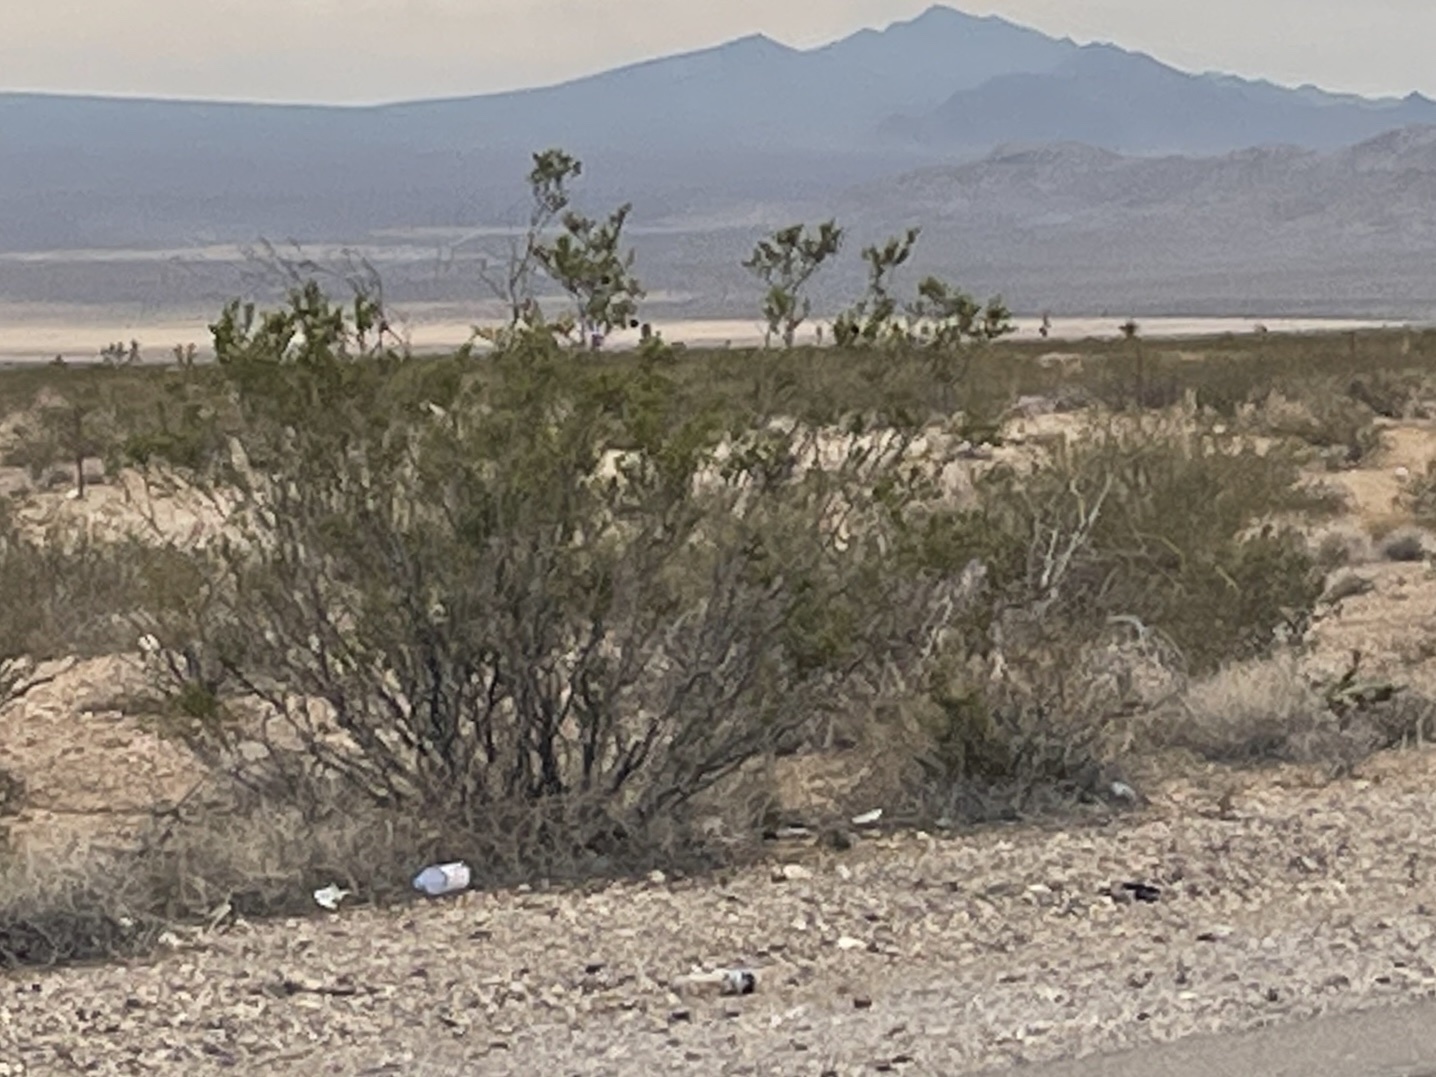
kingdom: Plantae
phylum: Tracheophyta
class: Magnoliopsida
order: Zygophyllales
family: Zygophyllaceae
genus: Larrea
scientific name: Larrea tridentata
